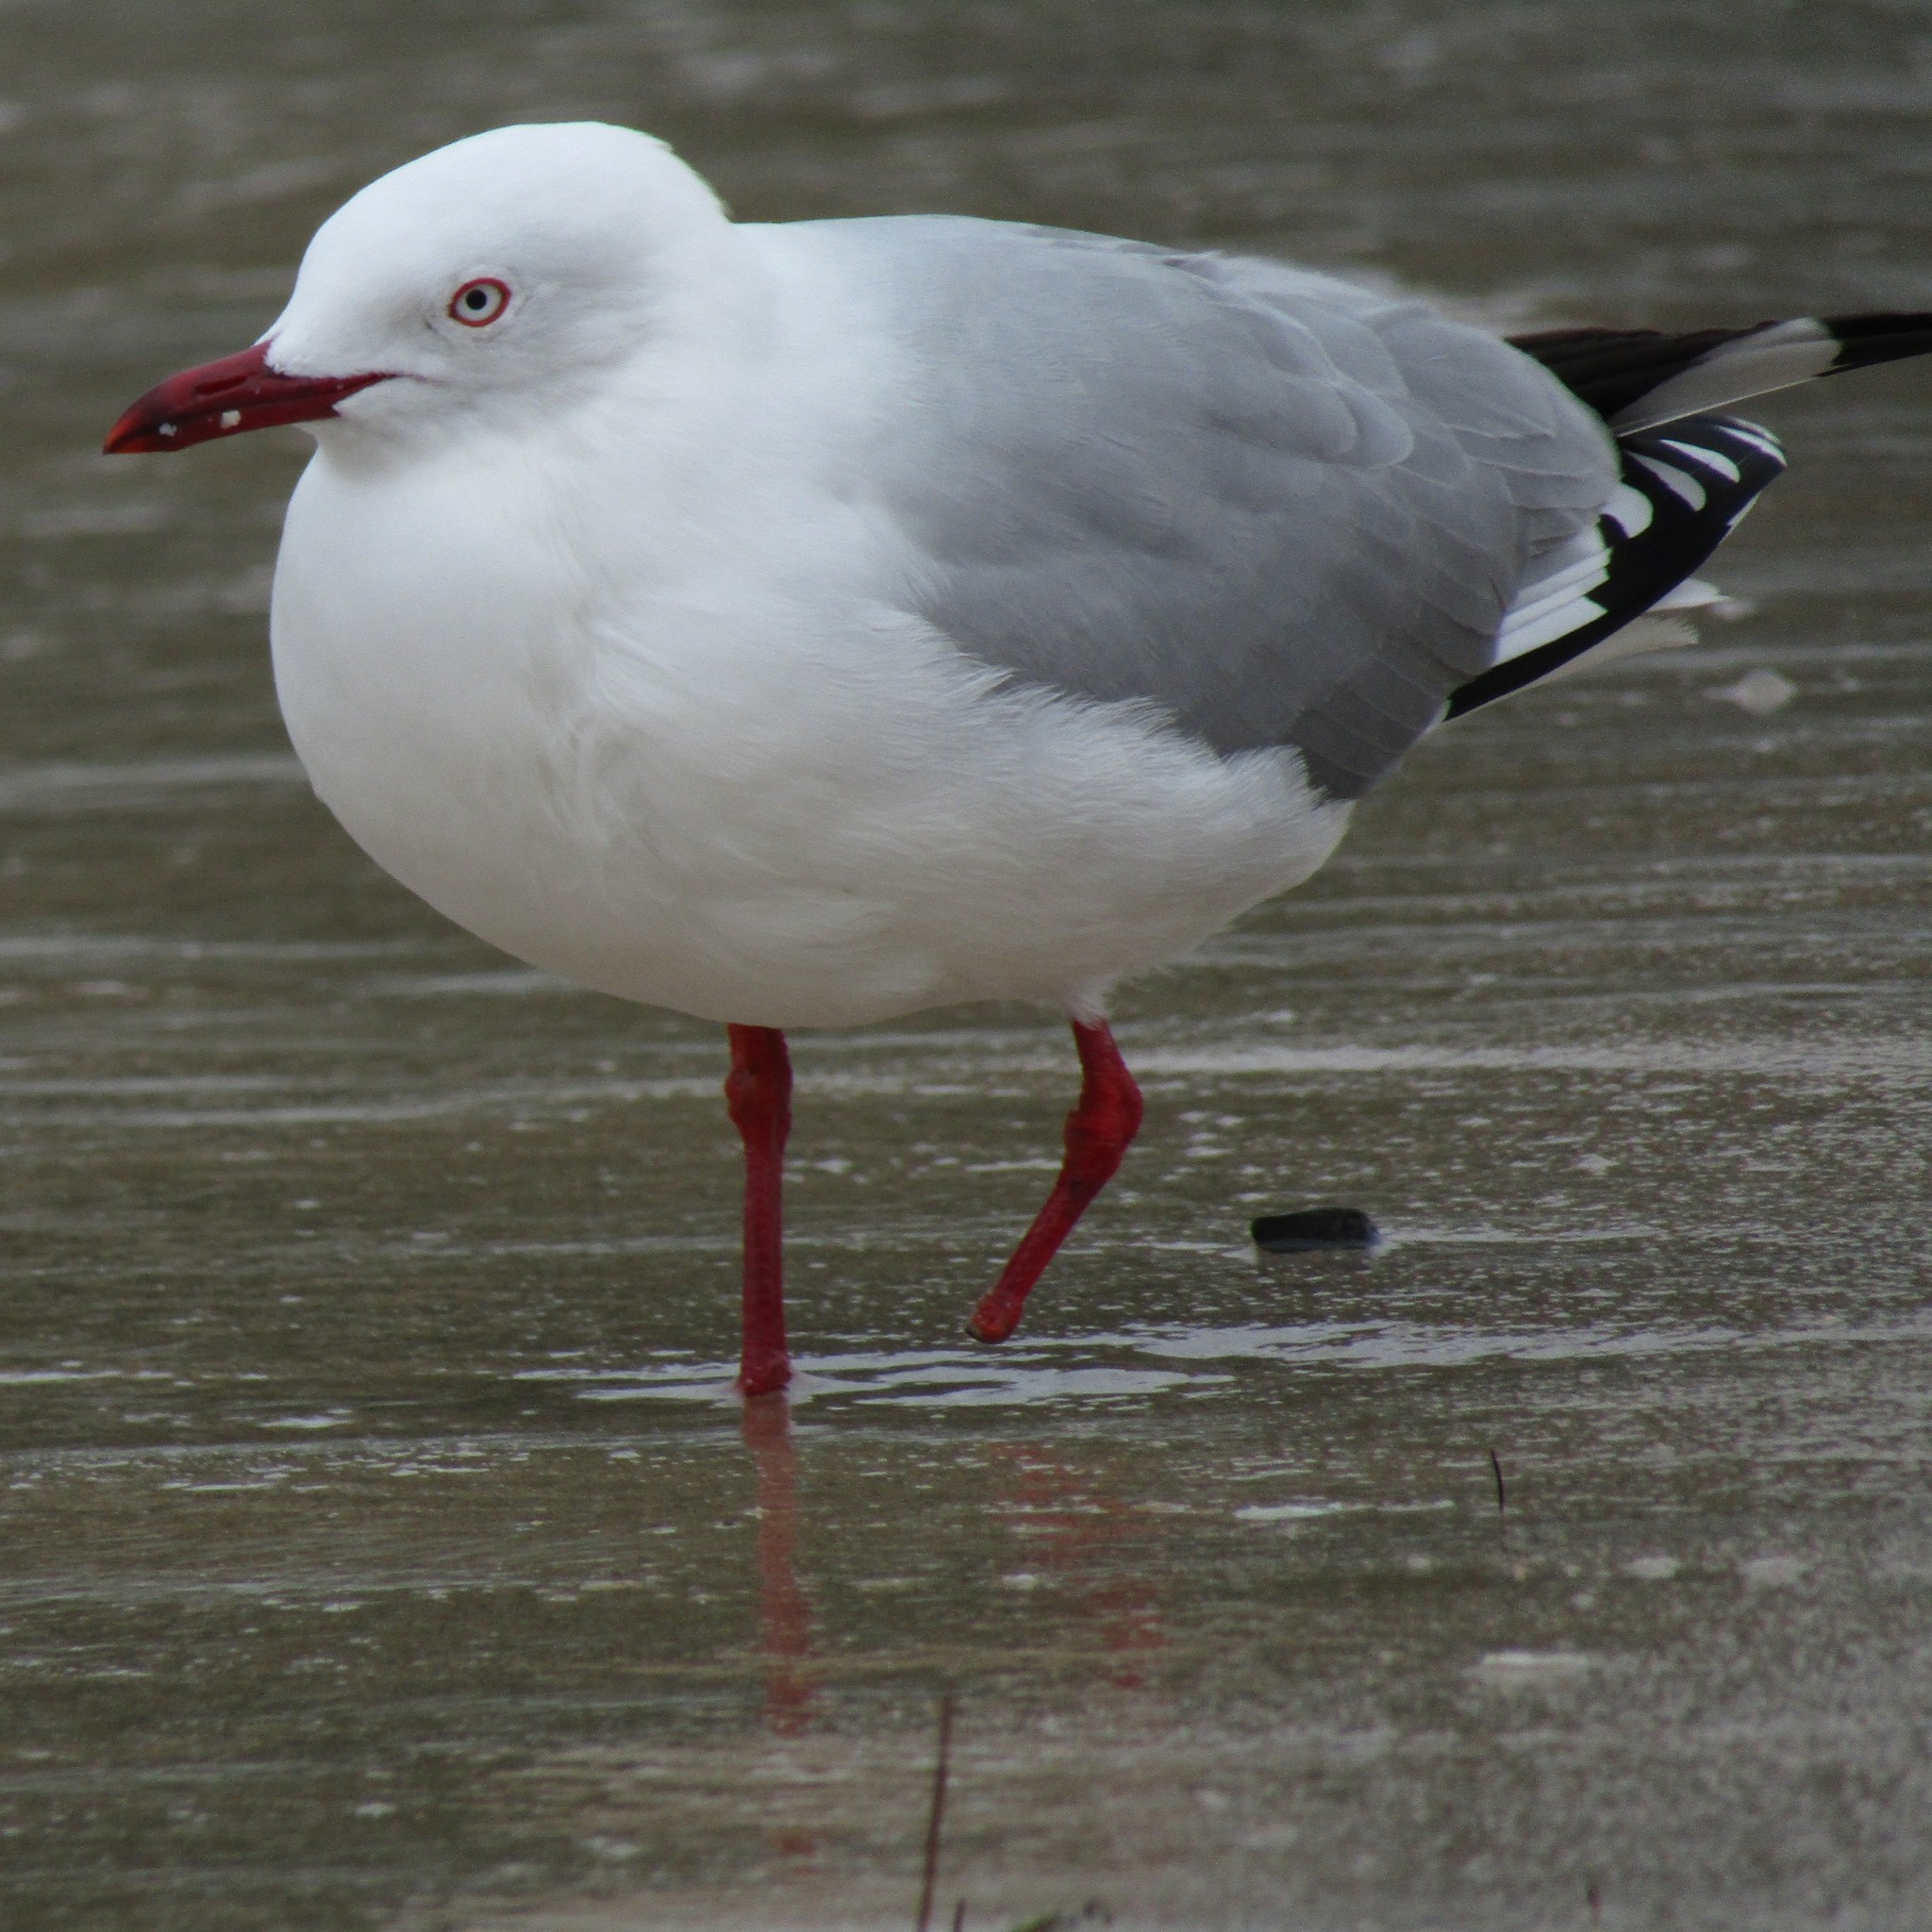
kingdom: Animalia
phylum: Chordata
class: Aves
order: Charadriiformes
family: Laridae
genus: Chroicocephalus
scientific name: Chroicocephalus novaehollandiae
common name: Silver gull
